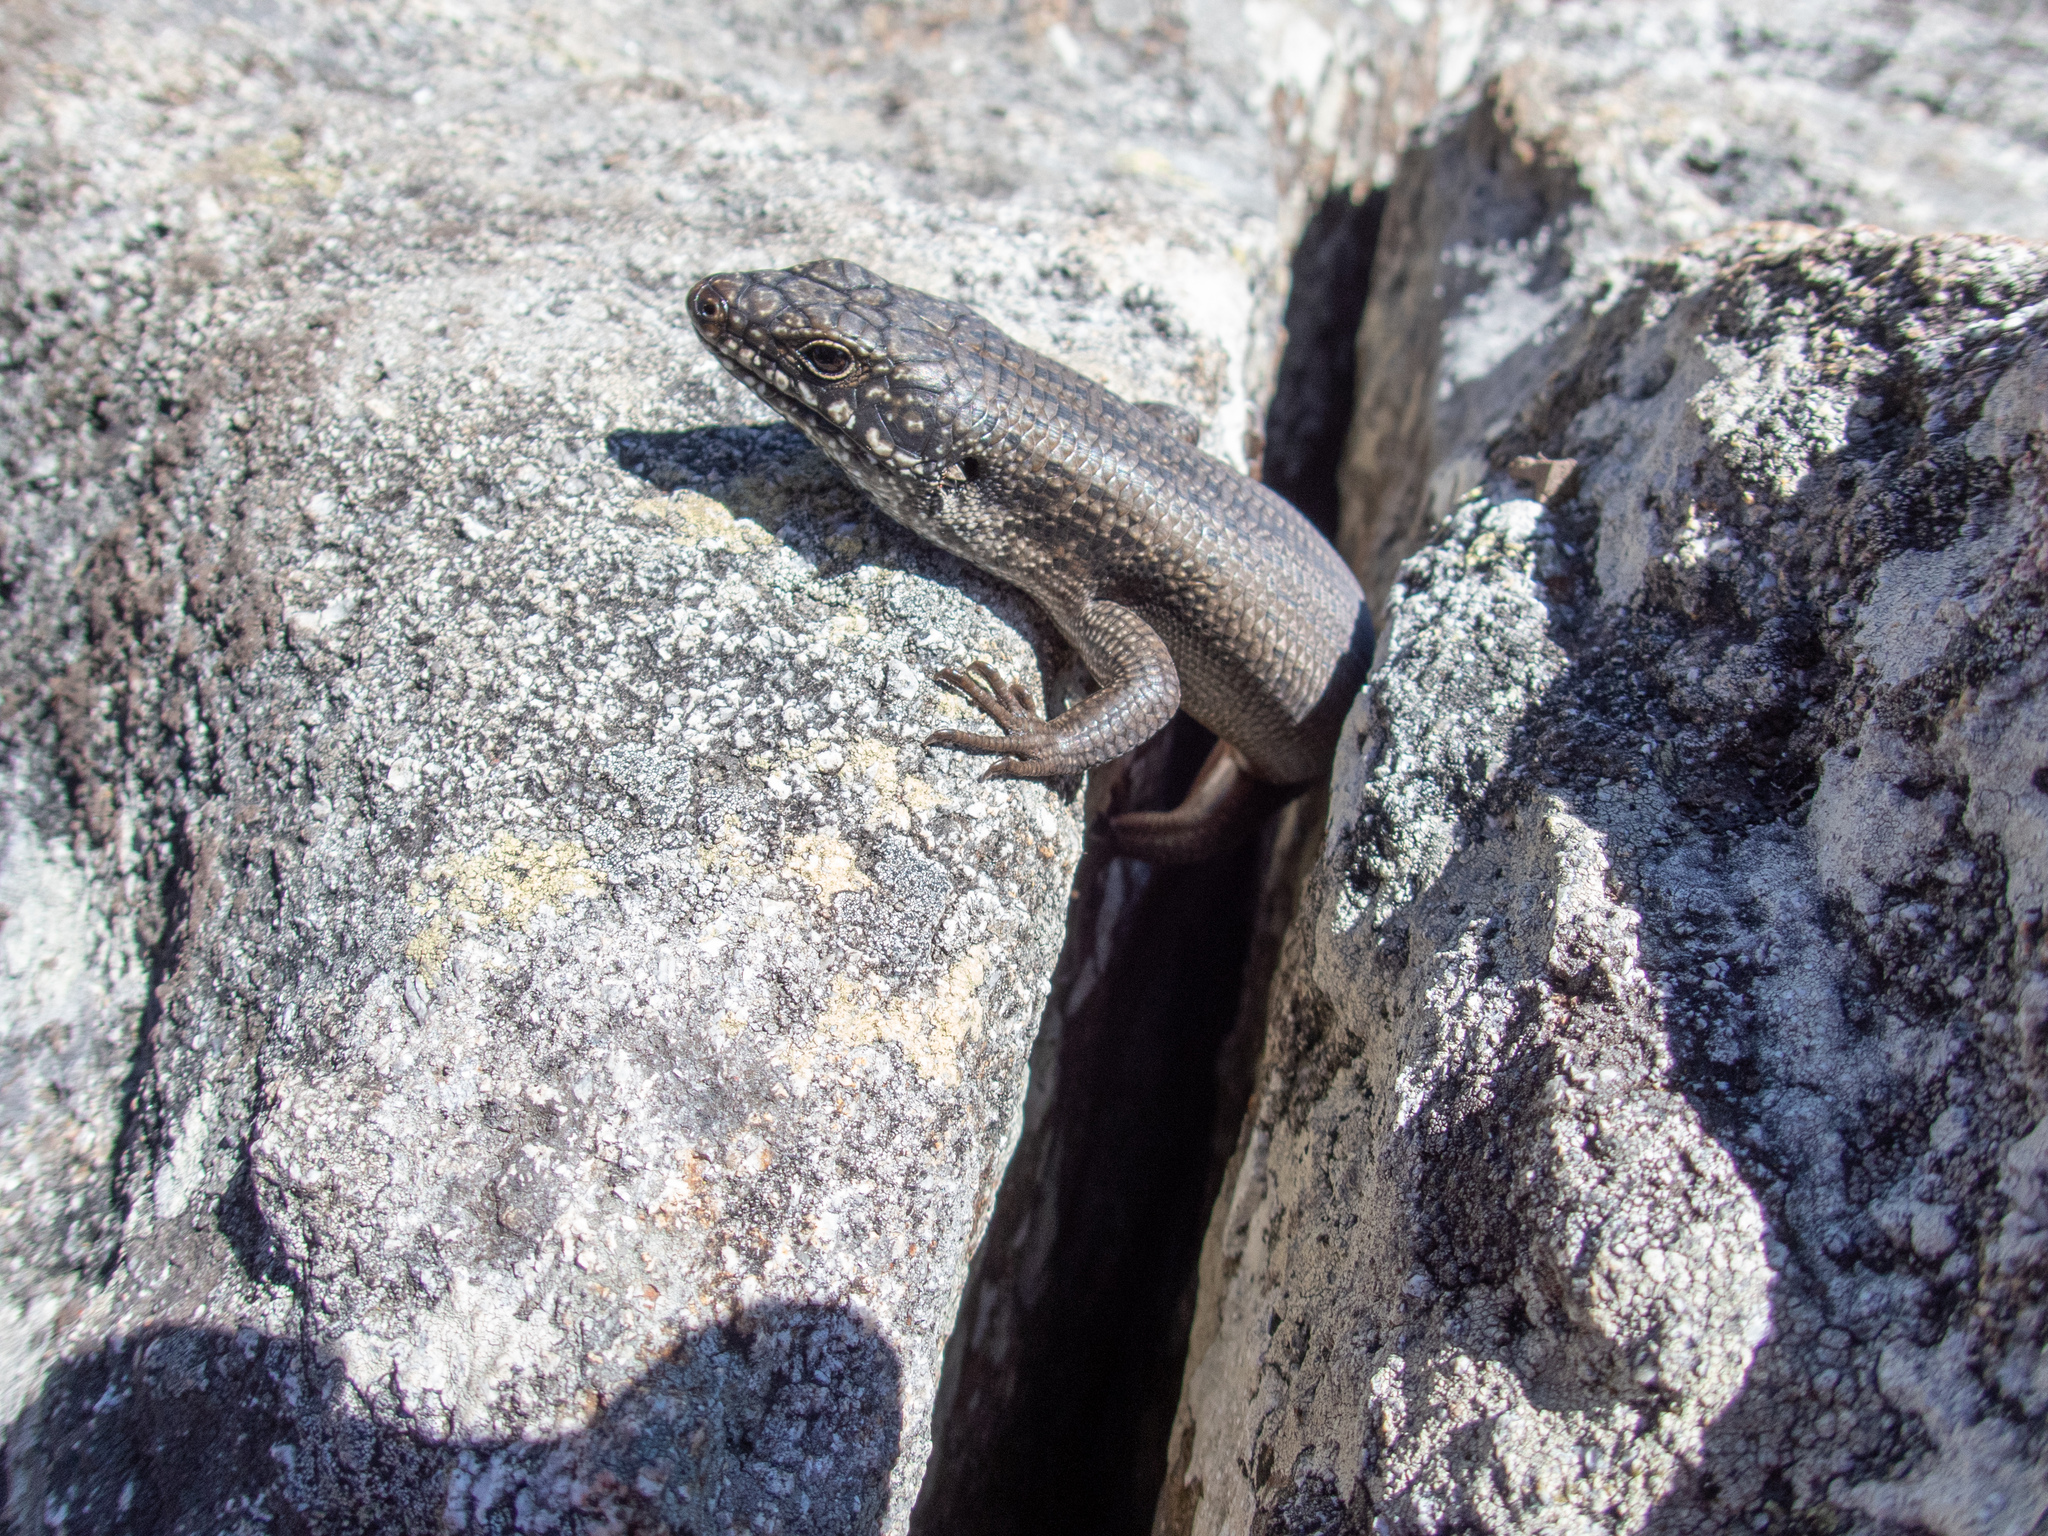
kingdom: Animalia
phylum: Chordata
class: Squamata
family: Scincidae
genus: Egernia
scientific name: Egernia mcpheei
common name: Eastern crevice skink
